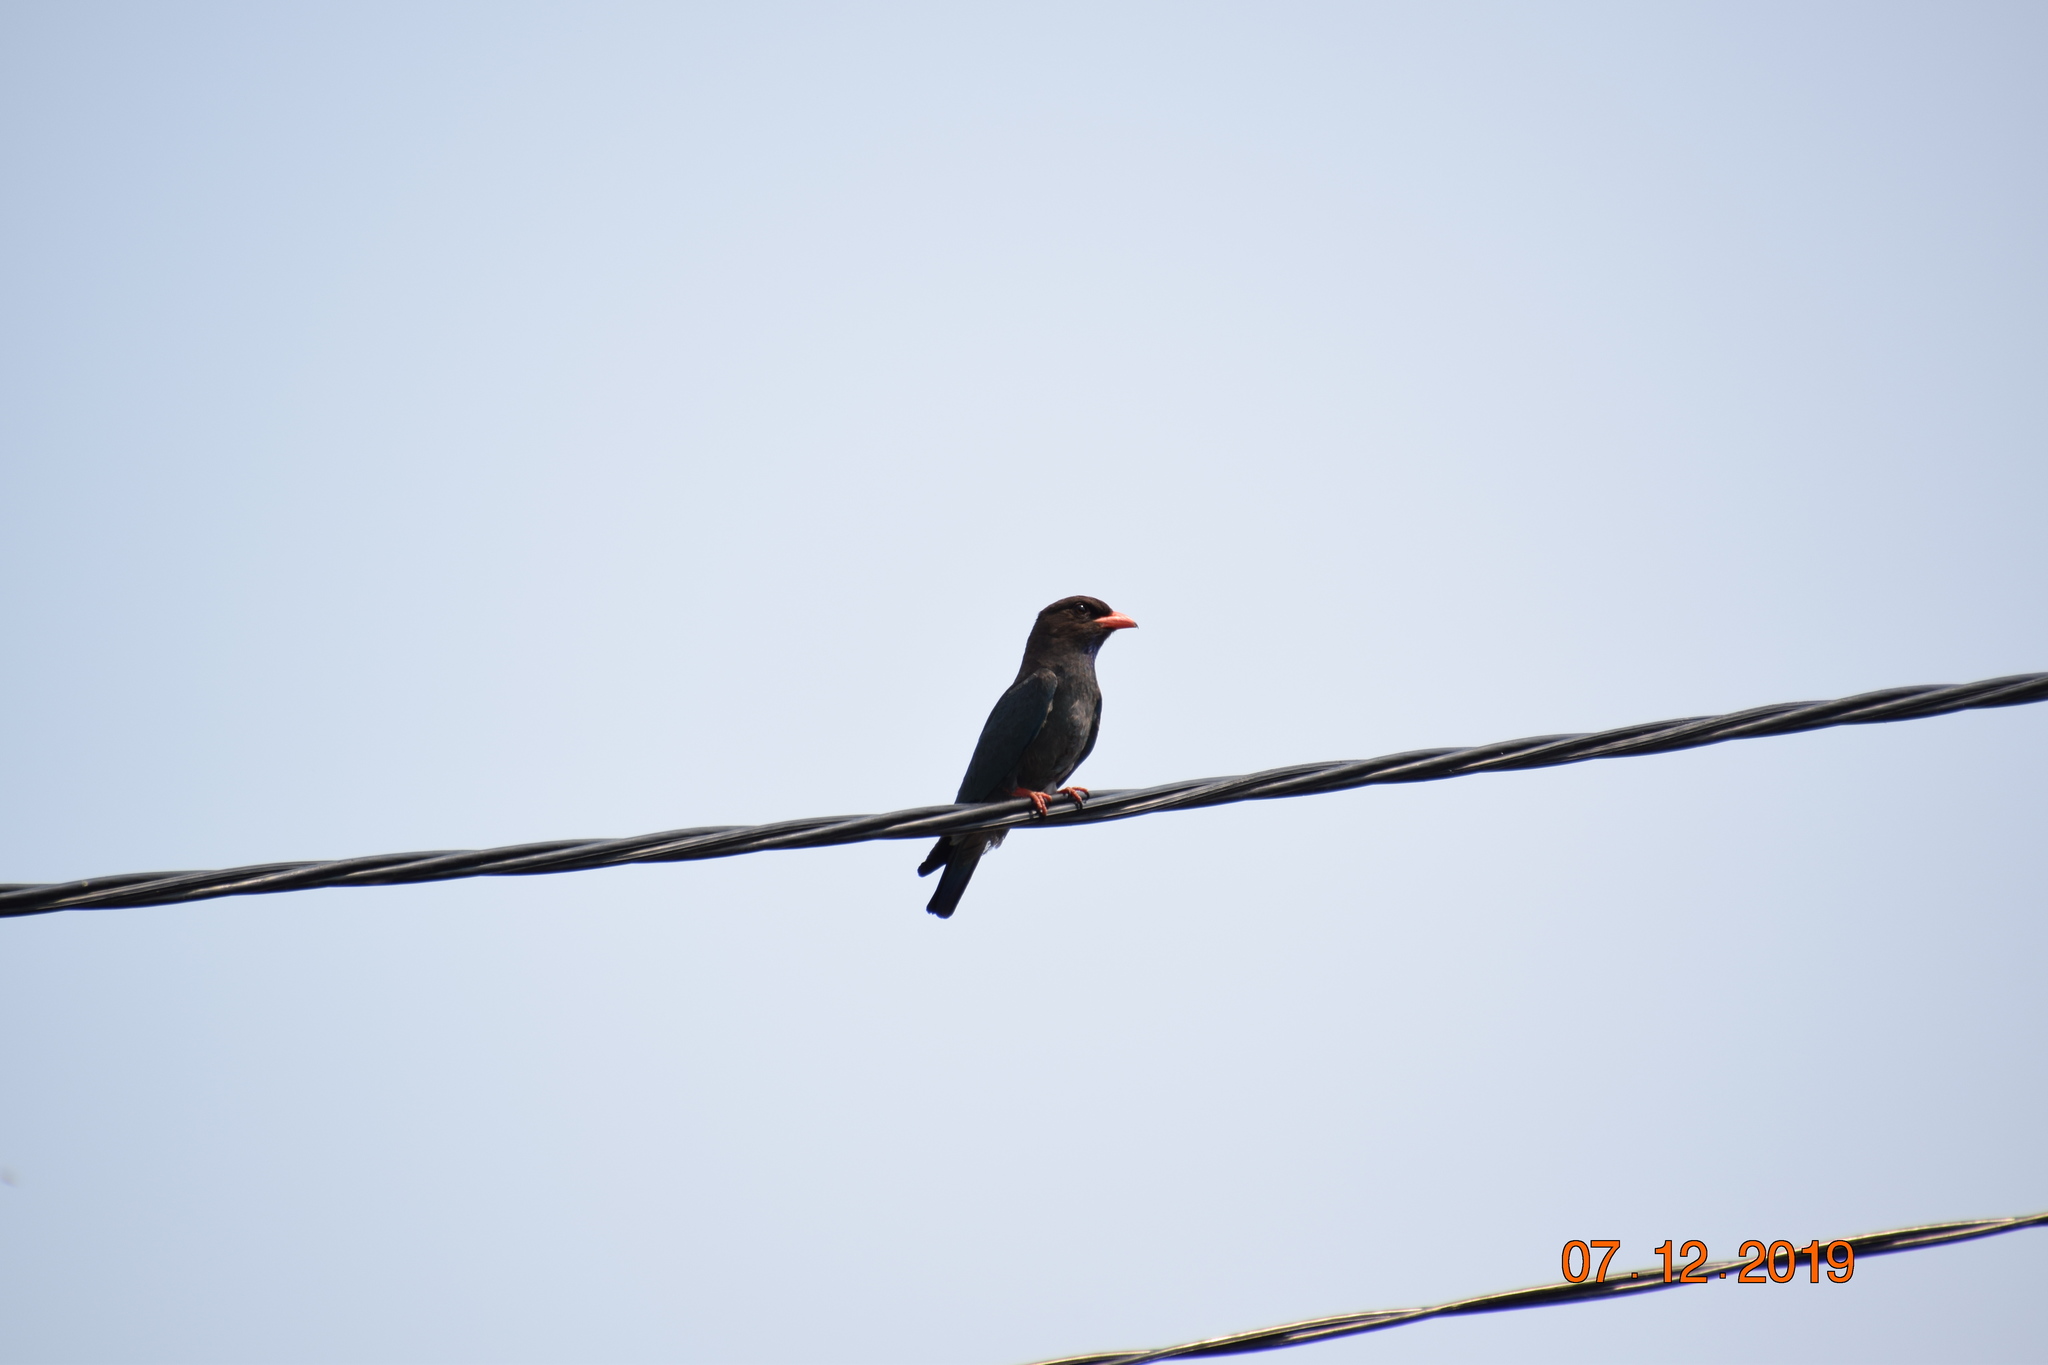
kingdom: Animalia
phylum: Chordata
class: Aves
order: Coraciiformes
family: Coraciidae
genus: Eurystomus
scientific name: Eurystomus orientalis
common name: Oriental dollarbird
